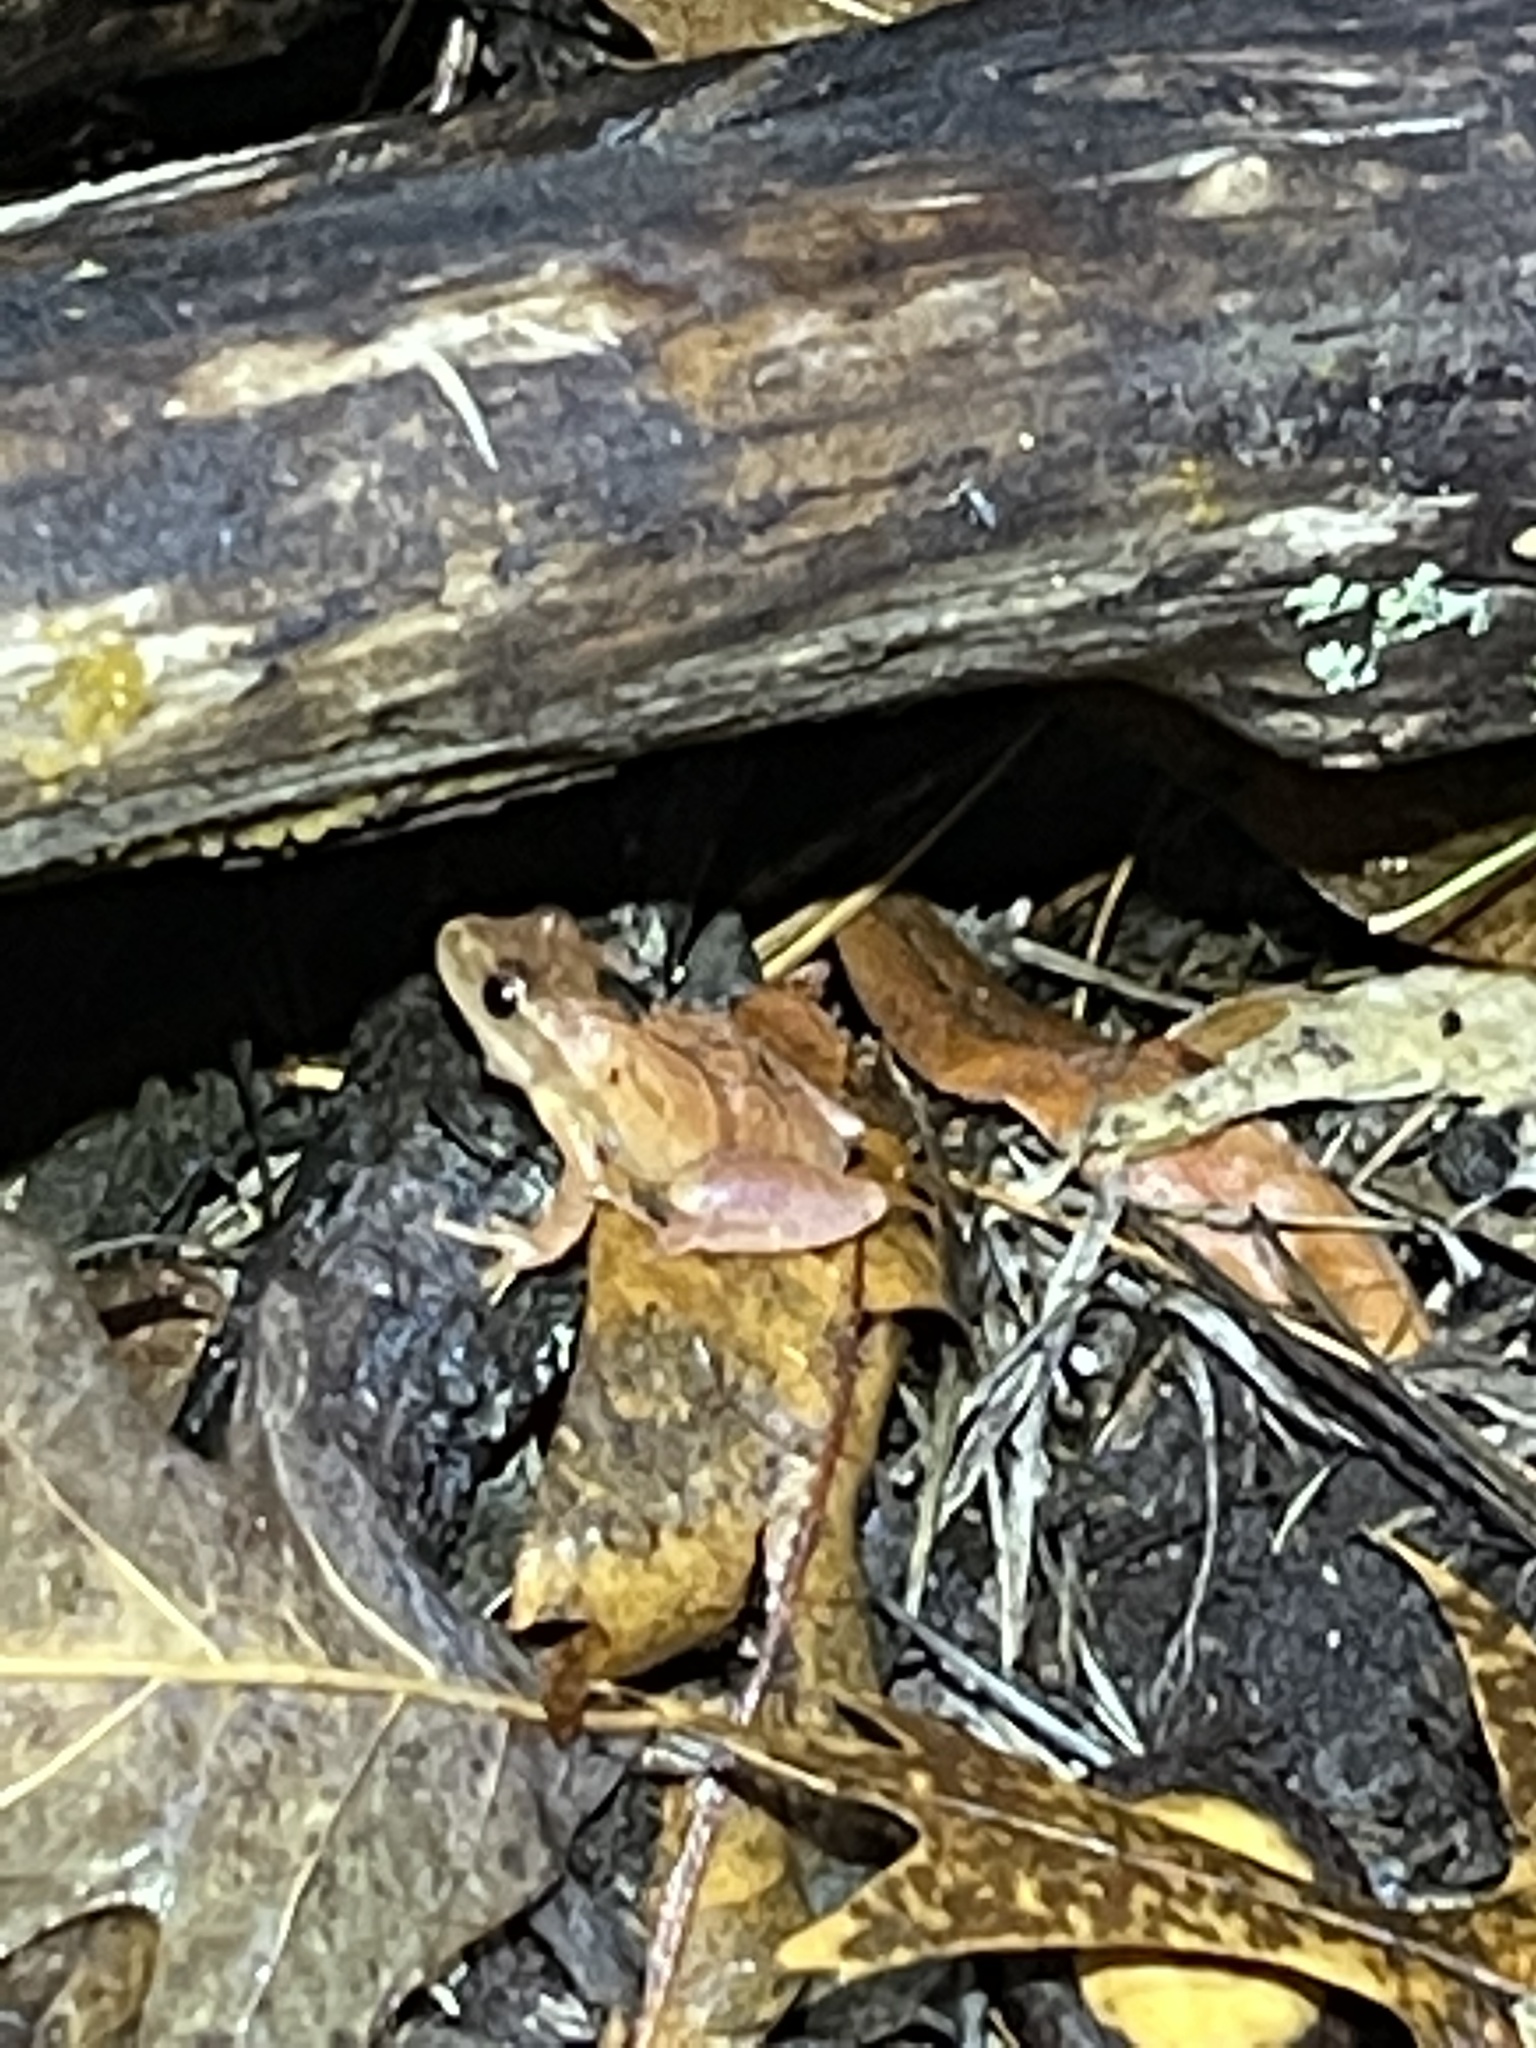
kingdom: Animalia
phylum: Chordata
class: Amphibia
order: Anura
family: Hylidae
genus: Pseudacris
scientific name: Pseudacris crucifer
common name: Spring peeper
